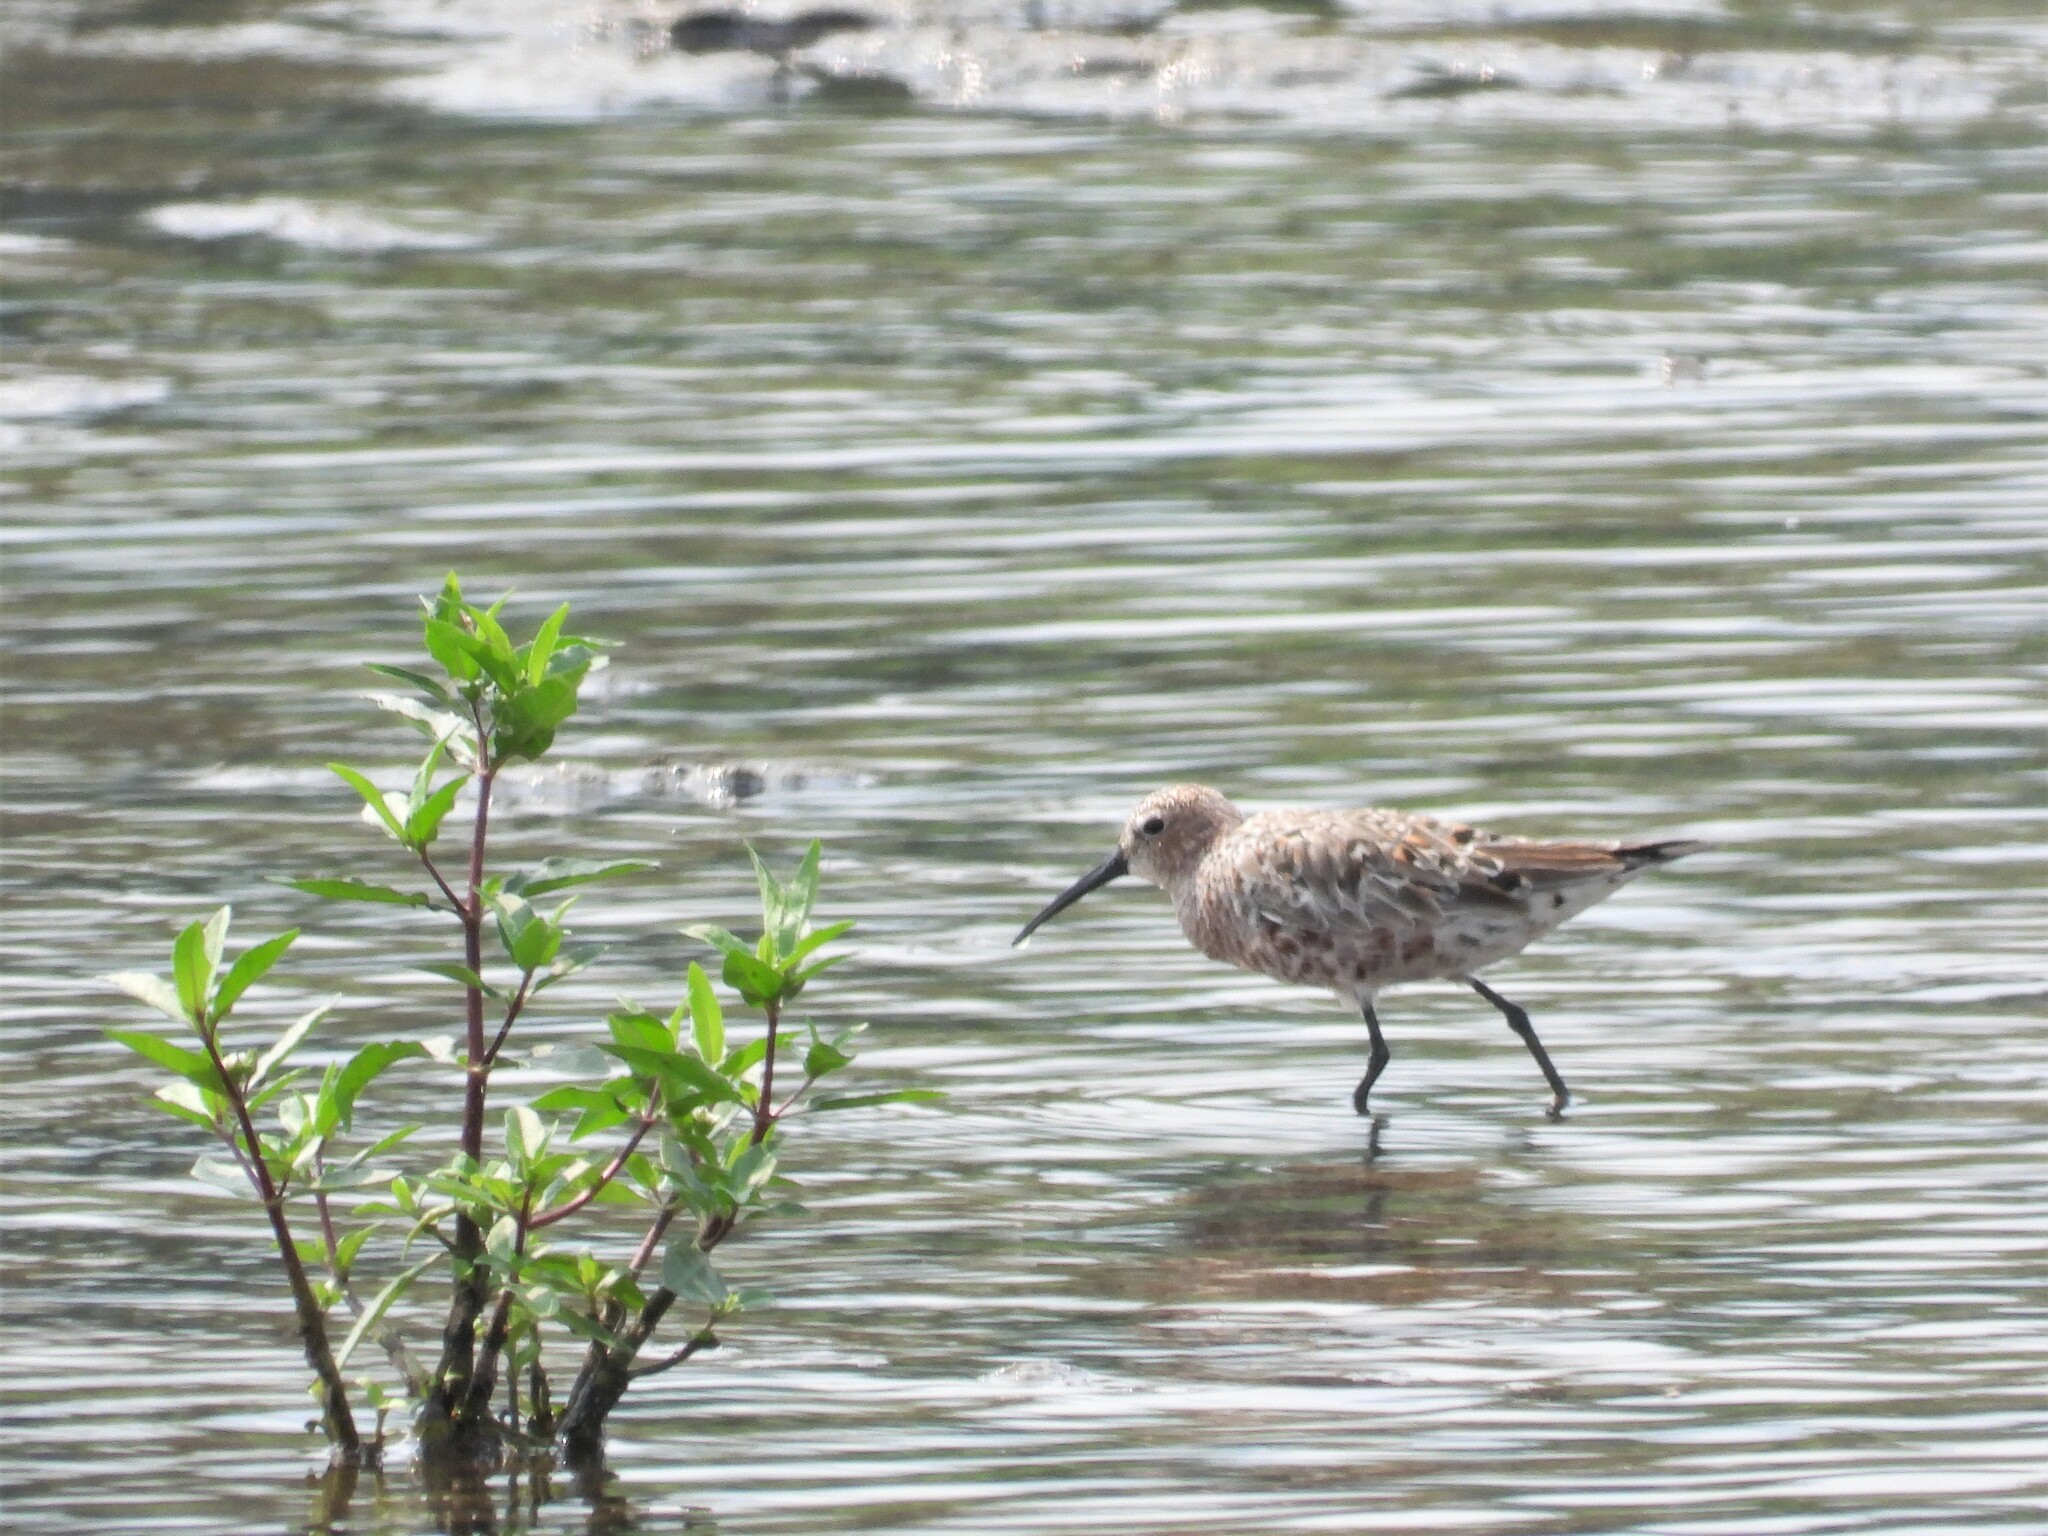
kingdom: Animalia
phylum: Chordata
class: Aves
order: Charadriiformes
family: Scolopacidae
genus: Calidris
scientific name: Calidris ferruginea
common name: Curlew sandpiper
